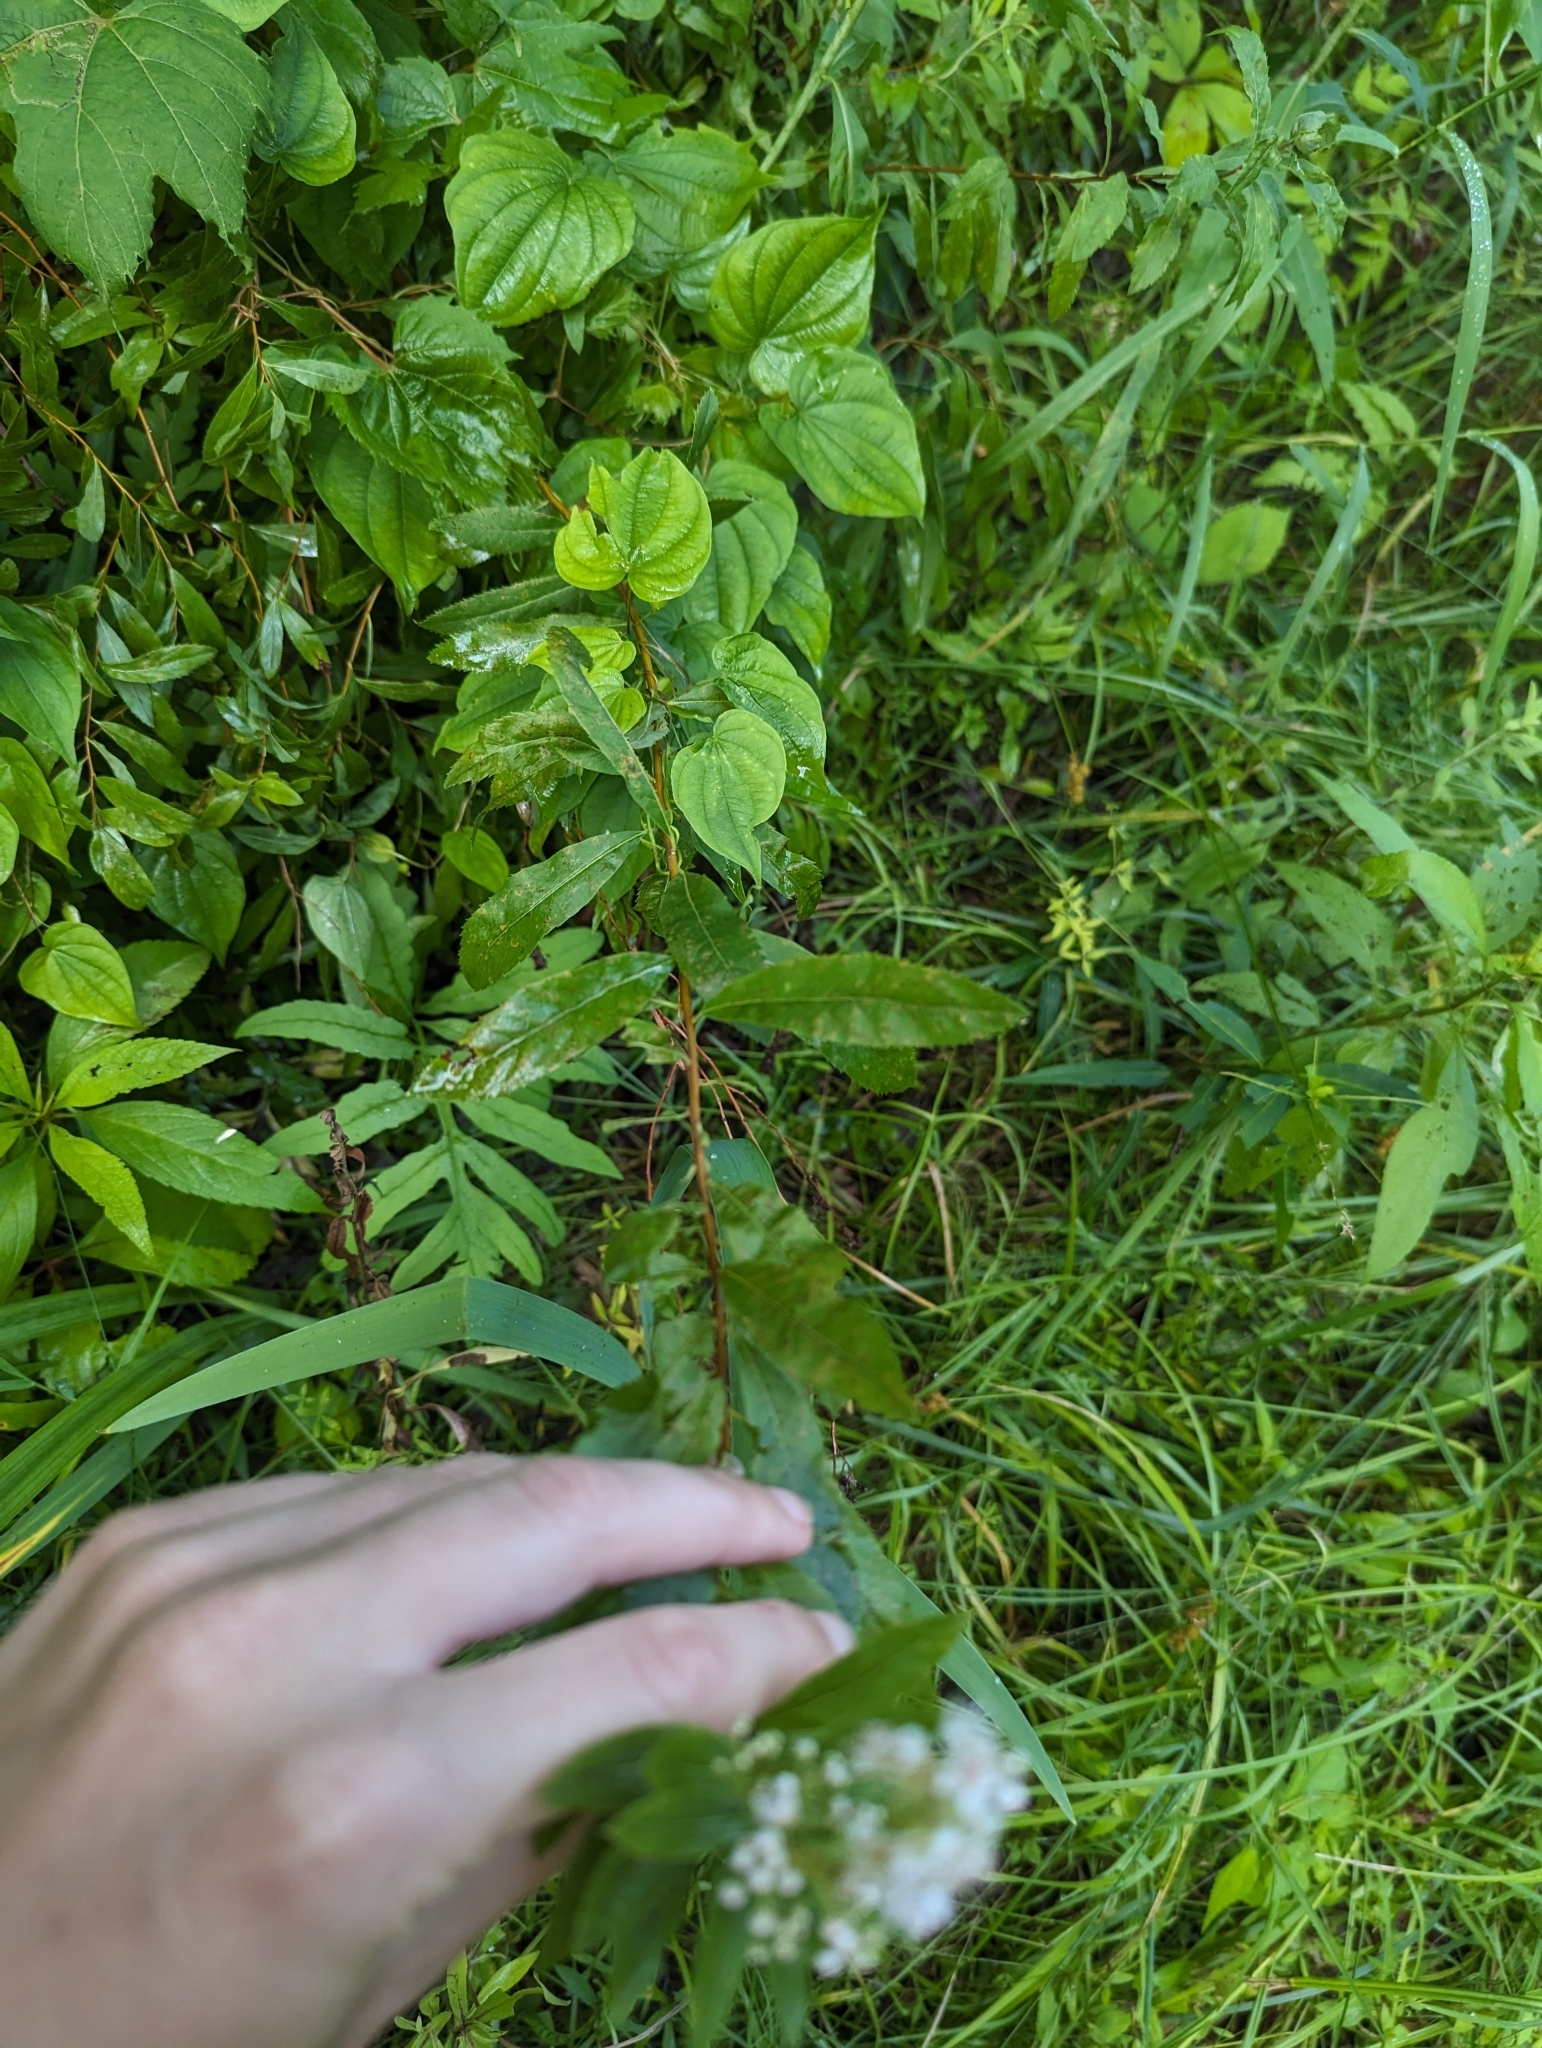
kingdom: Plantae
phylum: Tracheophyta
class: Magnoliopsida
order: Rosales
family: Rosaceae
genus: Spiraea
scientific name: Spiraea alba
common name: Pale bridewort
